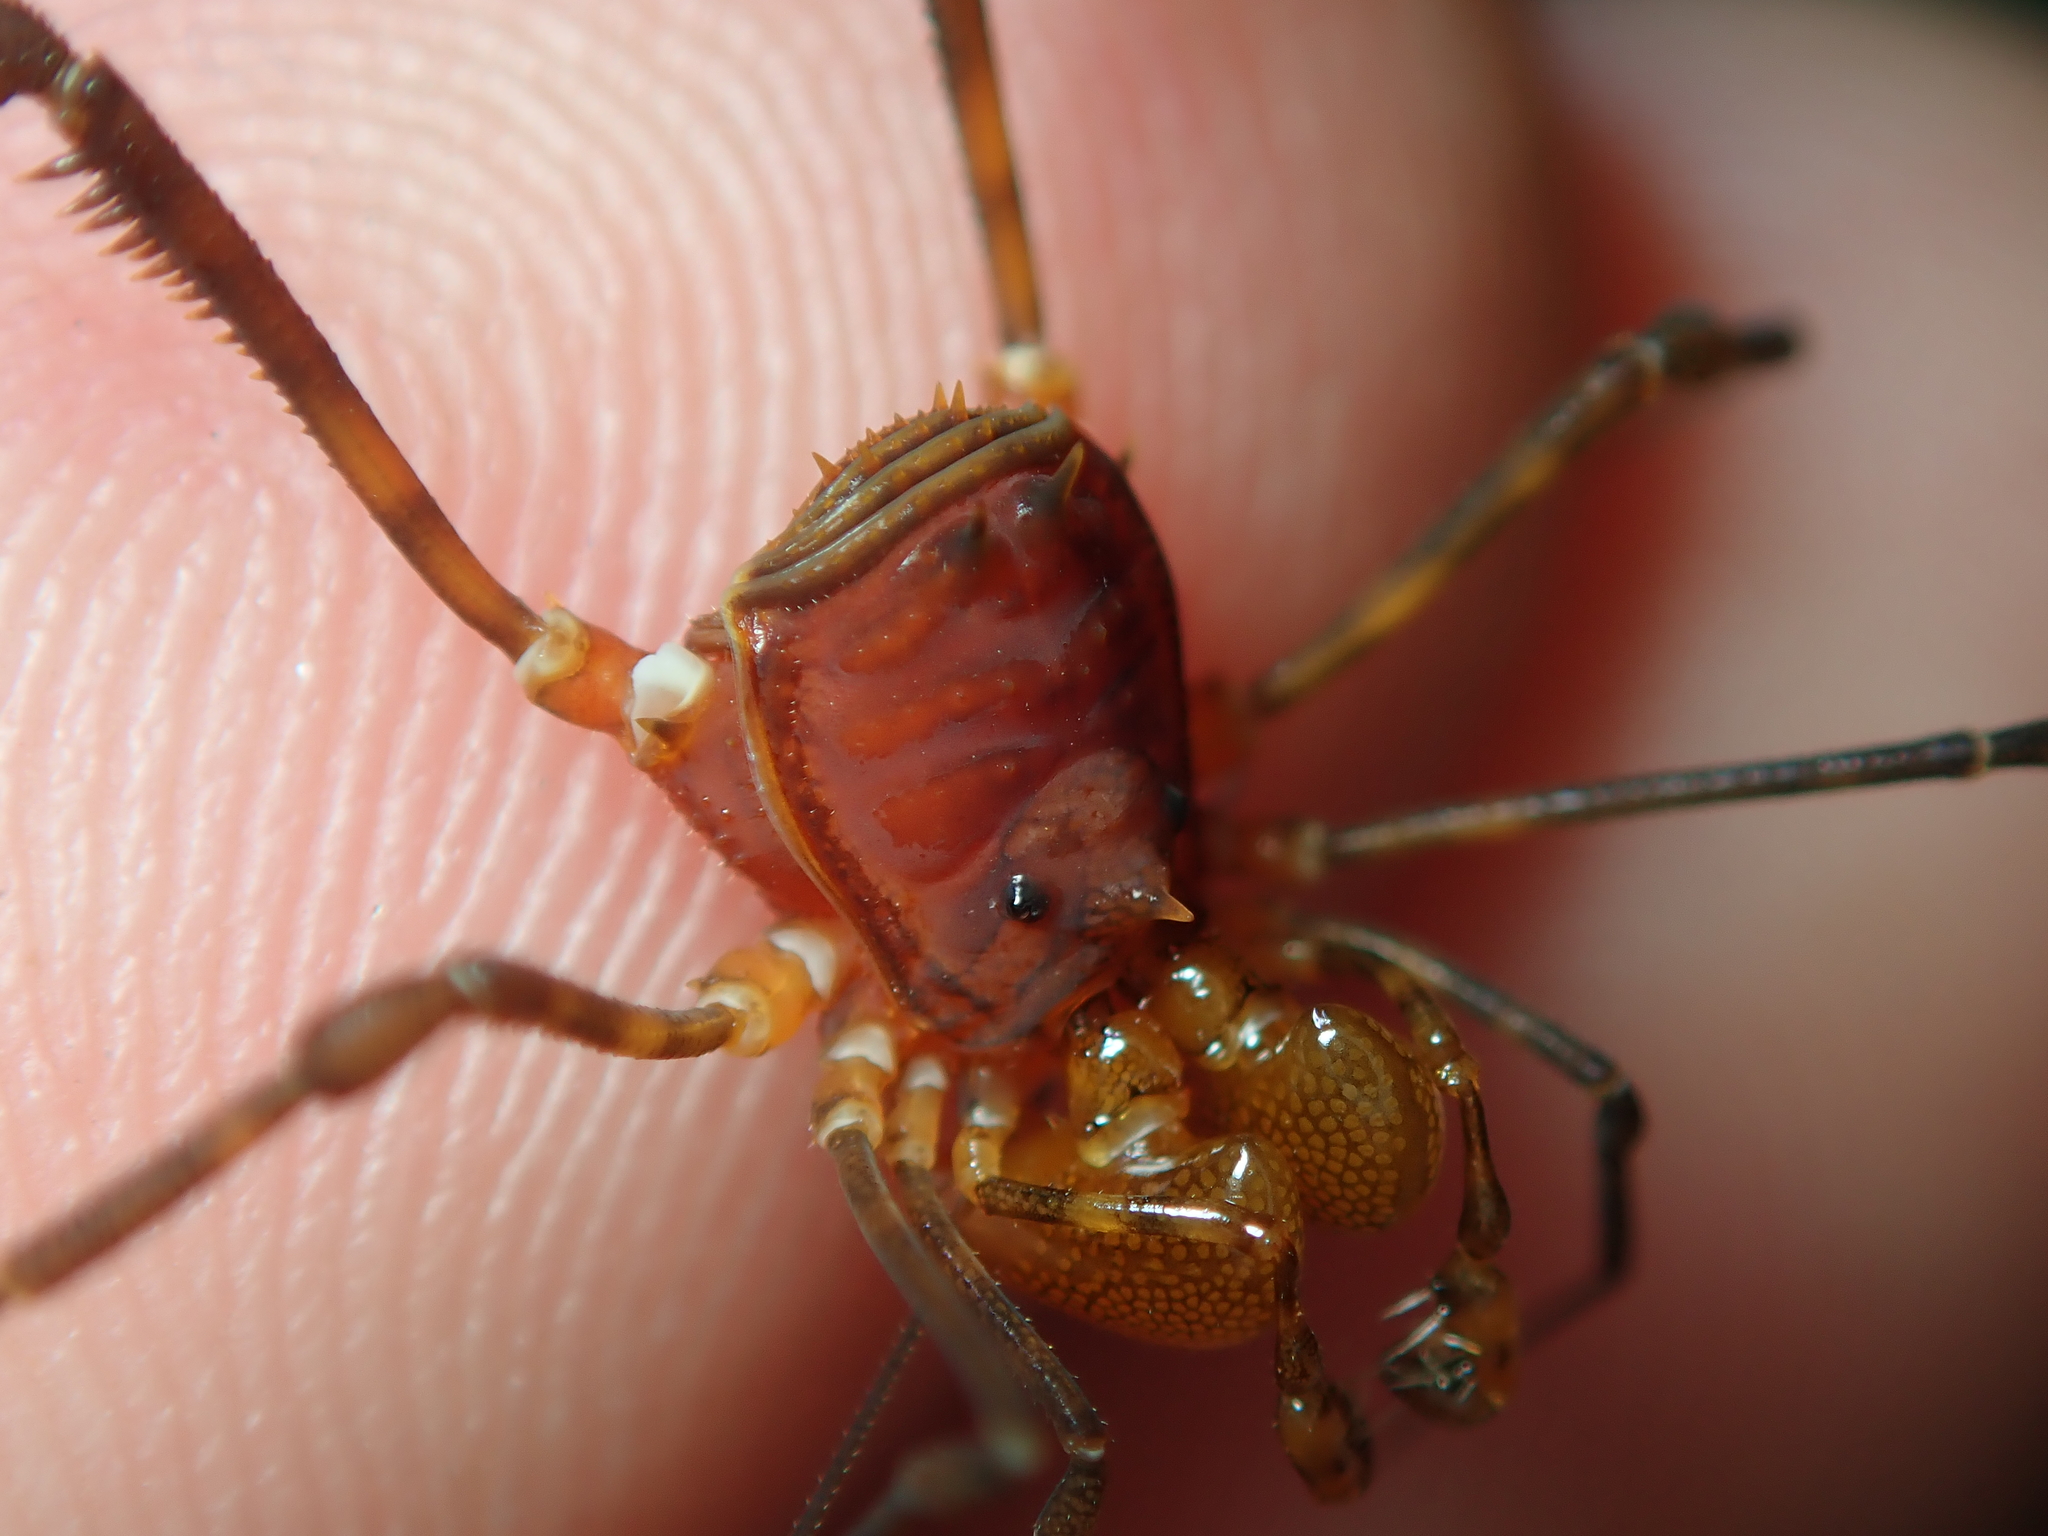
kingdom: Animalia
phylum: Arthropoda
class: Arachnida
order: Opiliones
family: Stygnidae
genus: Stygnus
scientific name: Stygnus luteus
